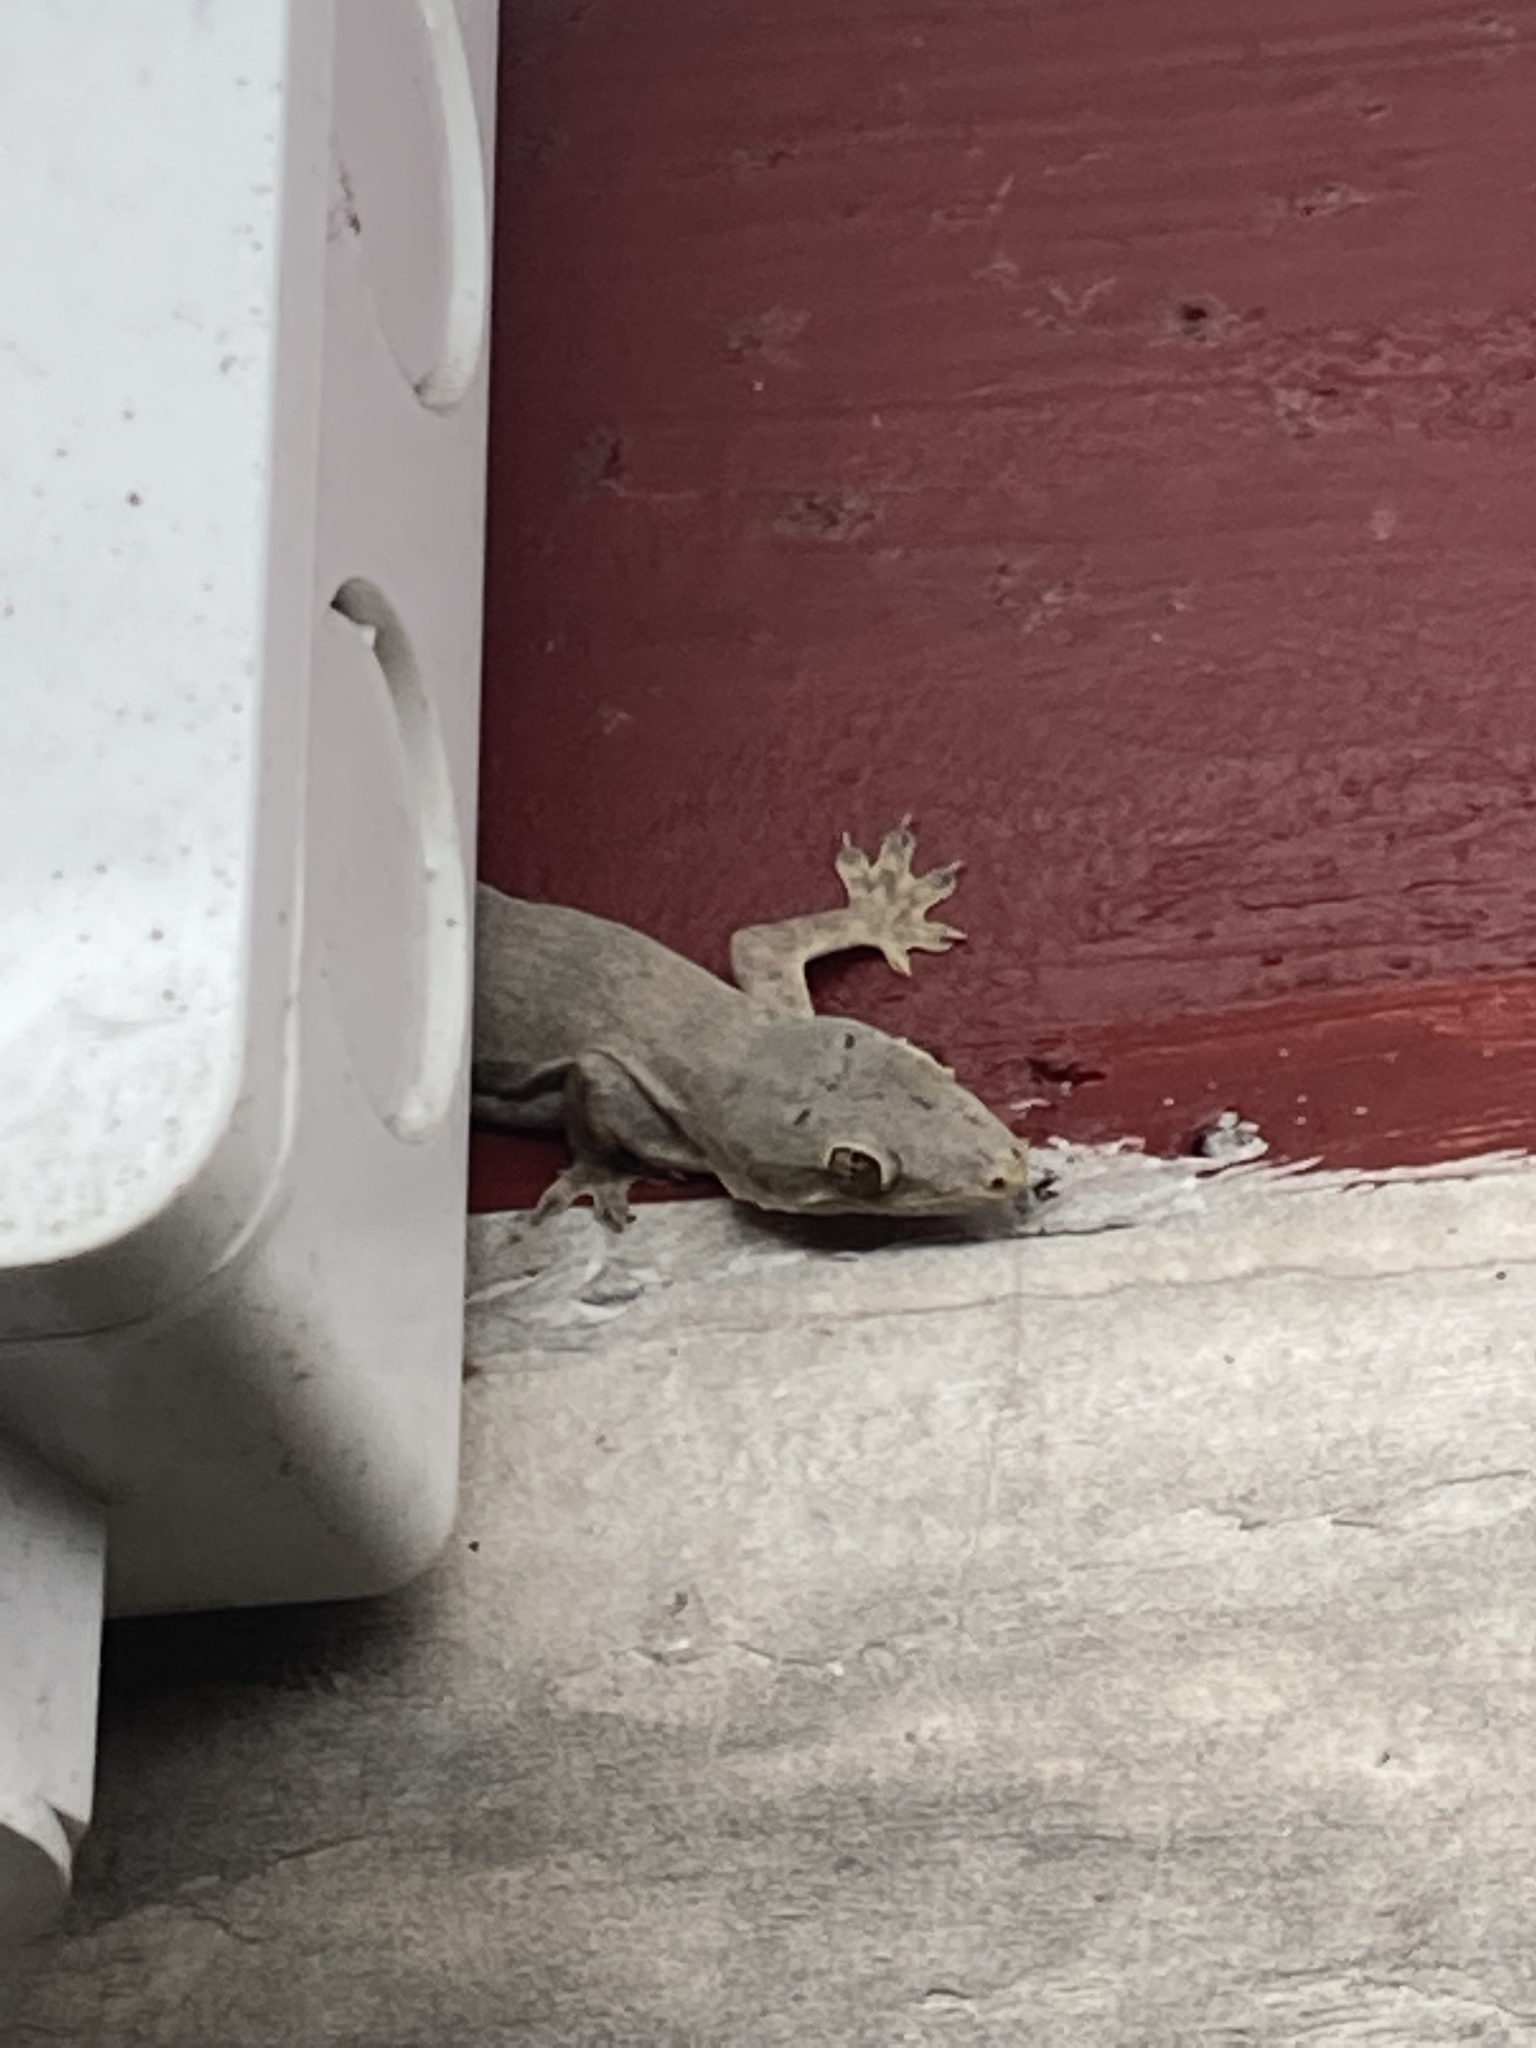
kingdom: Animalia
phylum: Chordata
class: Squamata
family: Gekkonidae
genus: Hemidactylus
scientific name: Hemidactylus platyurus
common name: Flat-tailed house gecko
